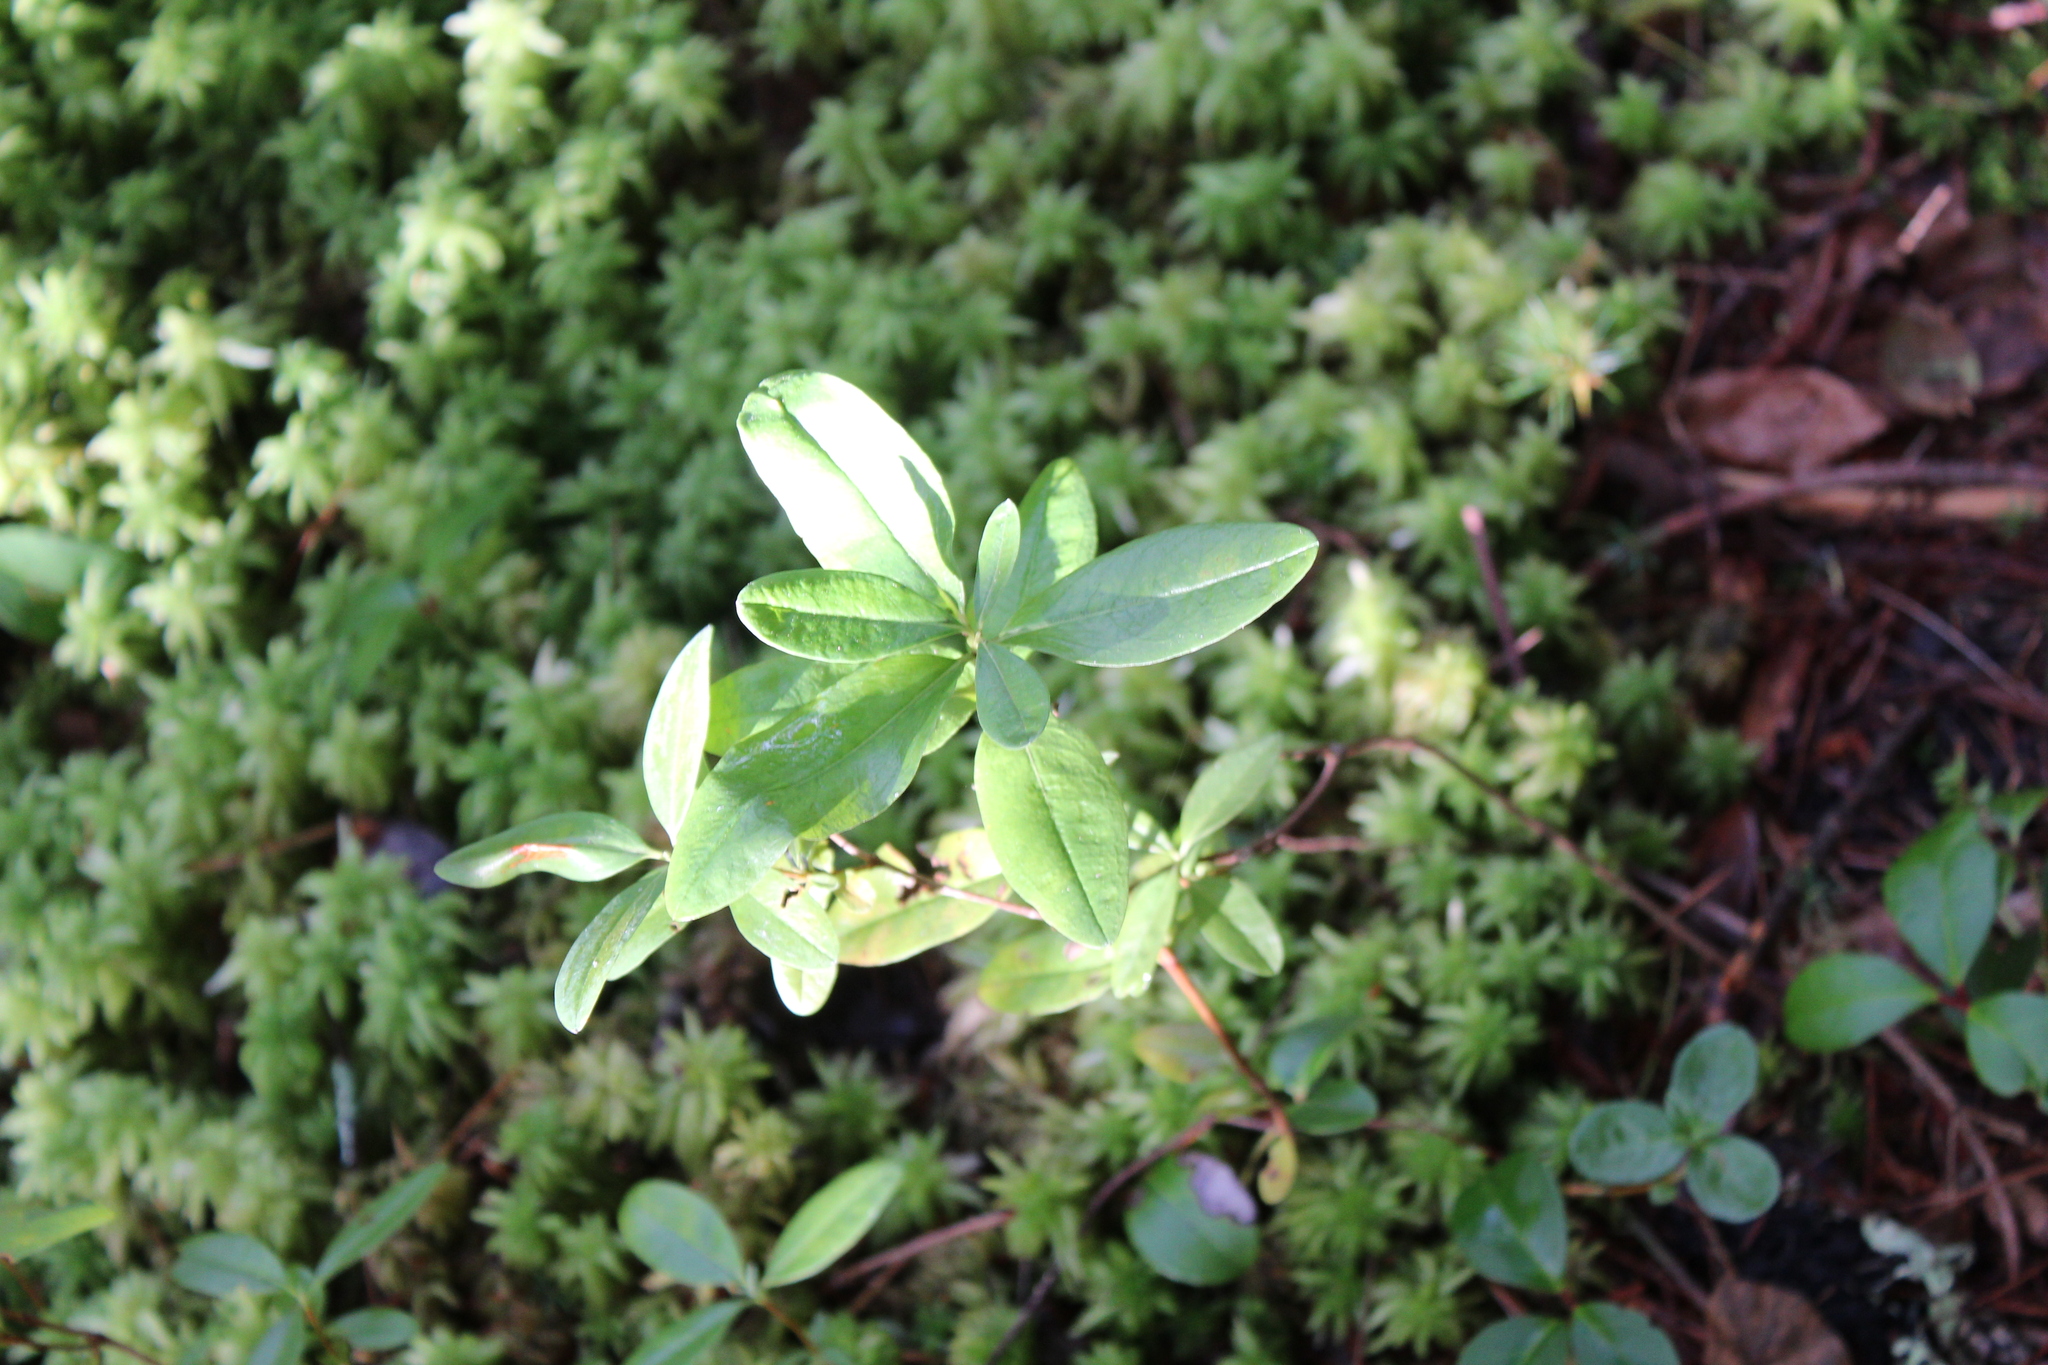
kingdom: Plantae
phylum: Tracheophyta
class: Magnoliopsida
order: Ericales
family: Ericaceae
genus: Kalmia
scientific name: Kalmia angustifolia
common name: Sheep-laurel
